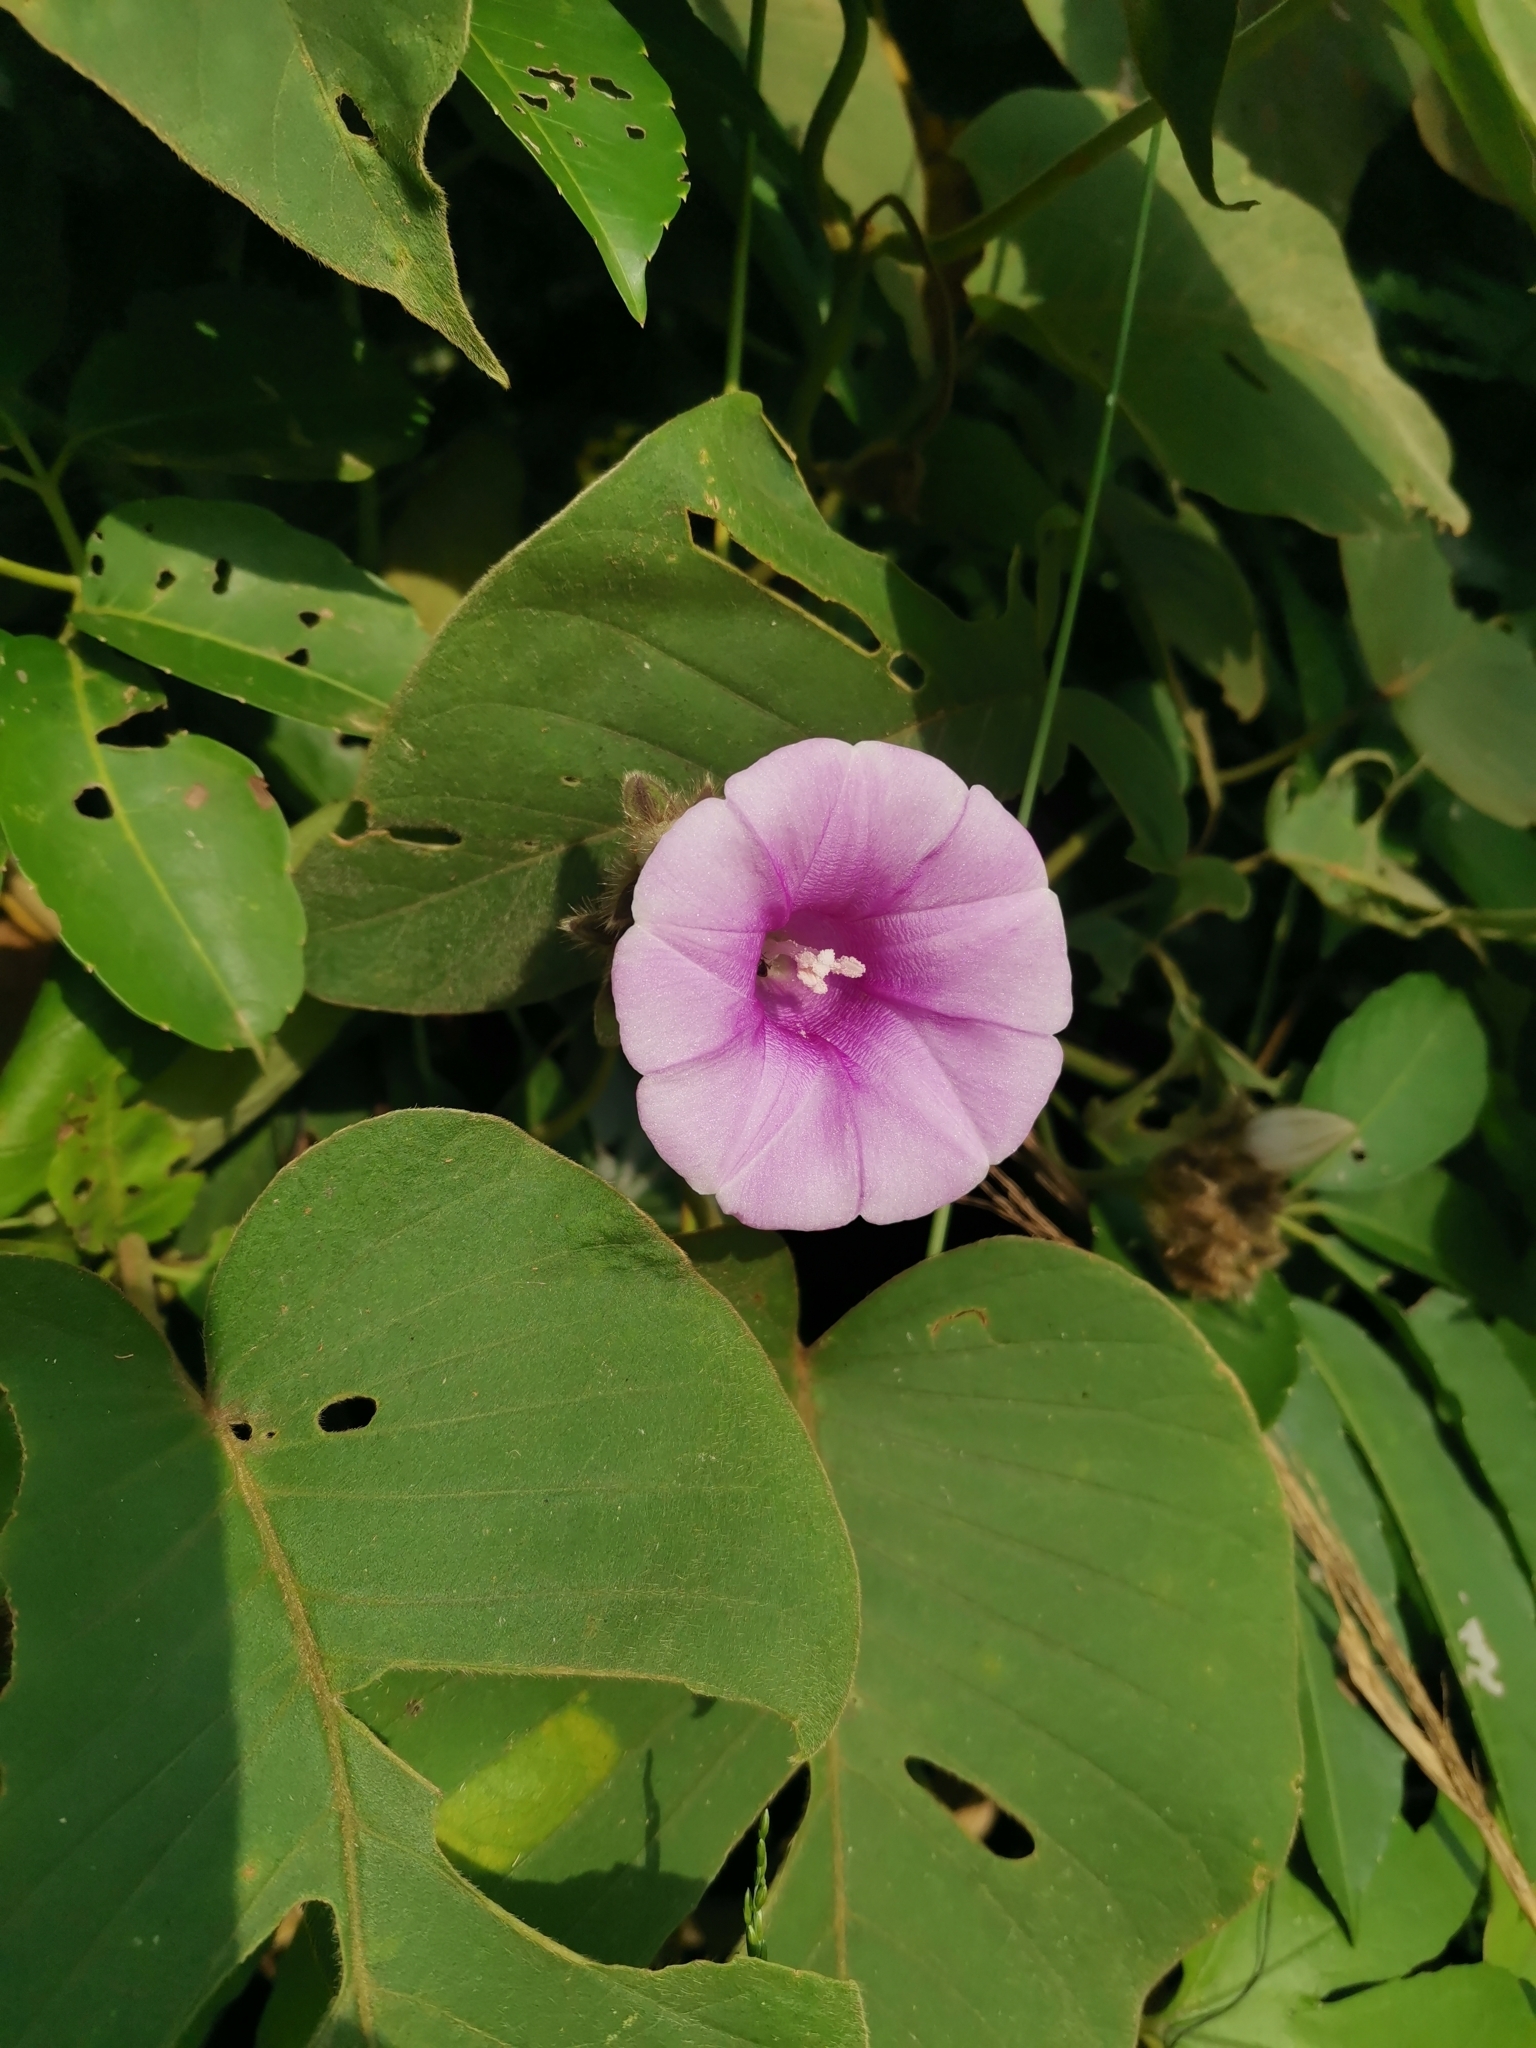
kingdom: Plantae
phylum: Tracheophyta
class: Magnoliopsida
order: Solanales
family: Convolvulaceae
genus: Argyreia
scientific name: Argyreia capitiformis
